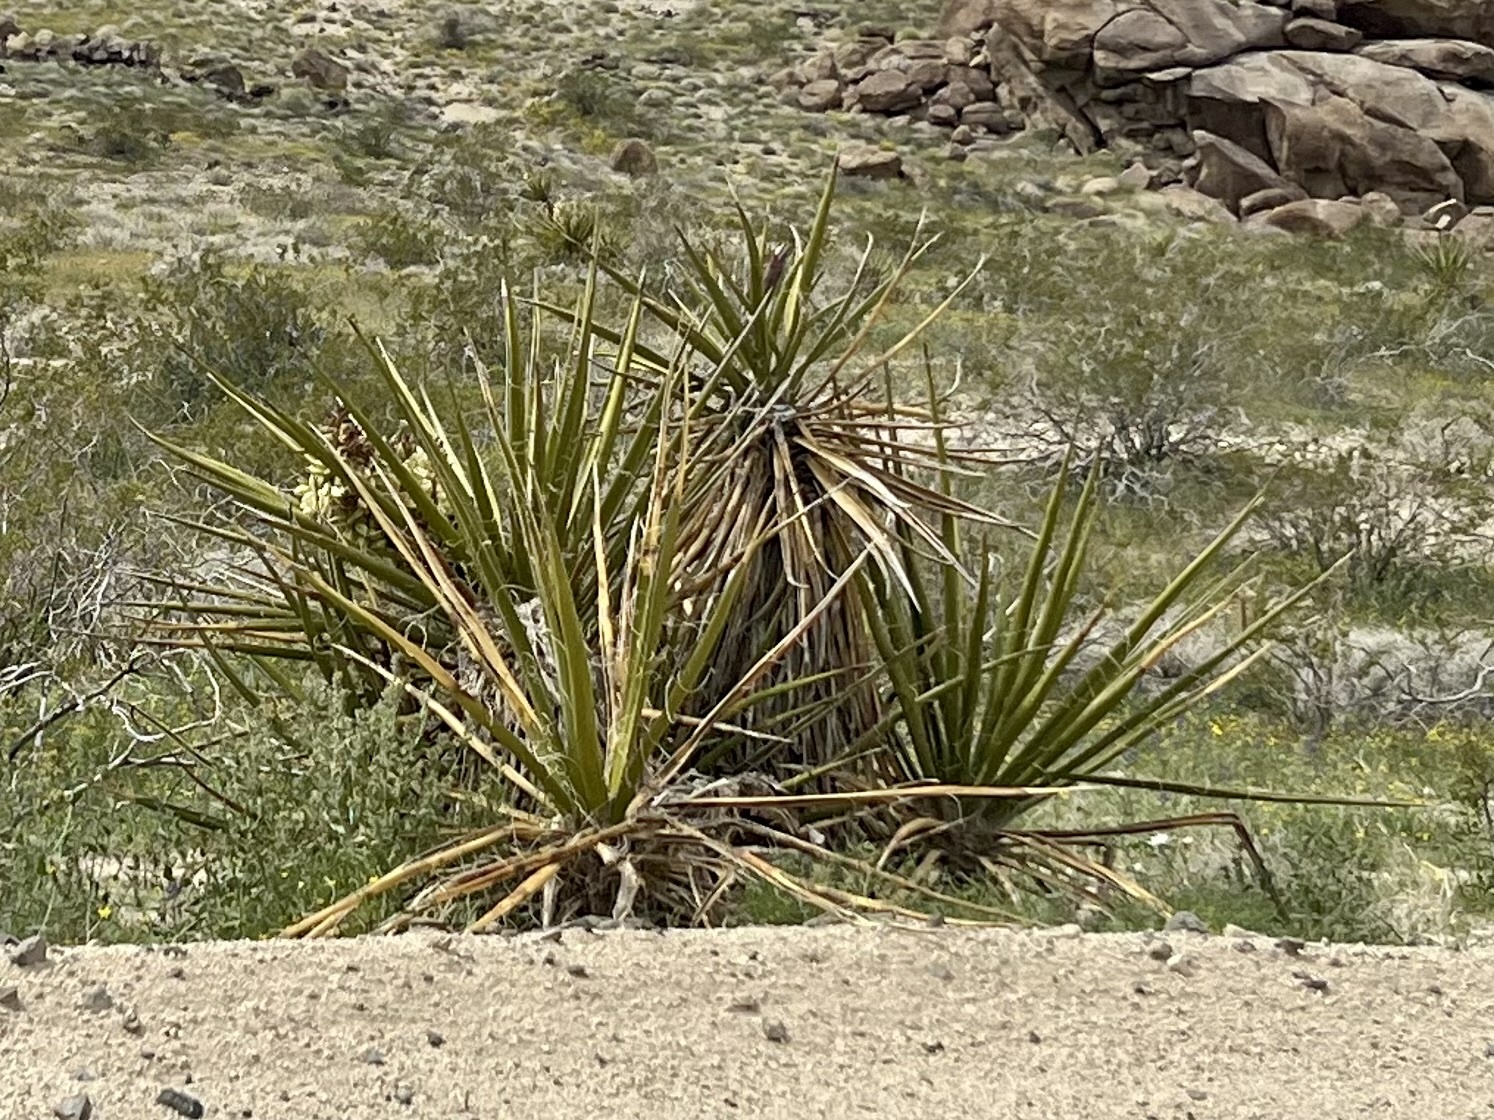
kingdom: Plantae
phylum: Tracheophyta
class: Liliopsida
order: Asparagales
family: Asparagaceae
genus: Yucca
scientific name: Yucca schidigera
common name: Mojave yucca
